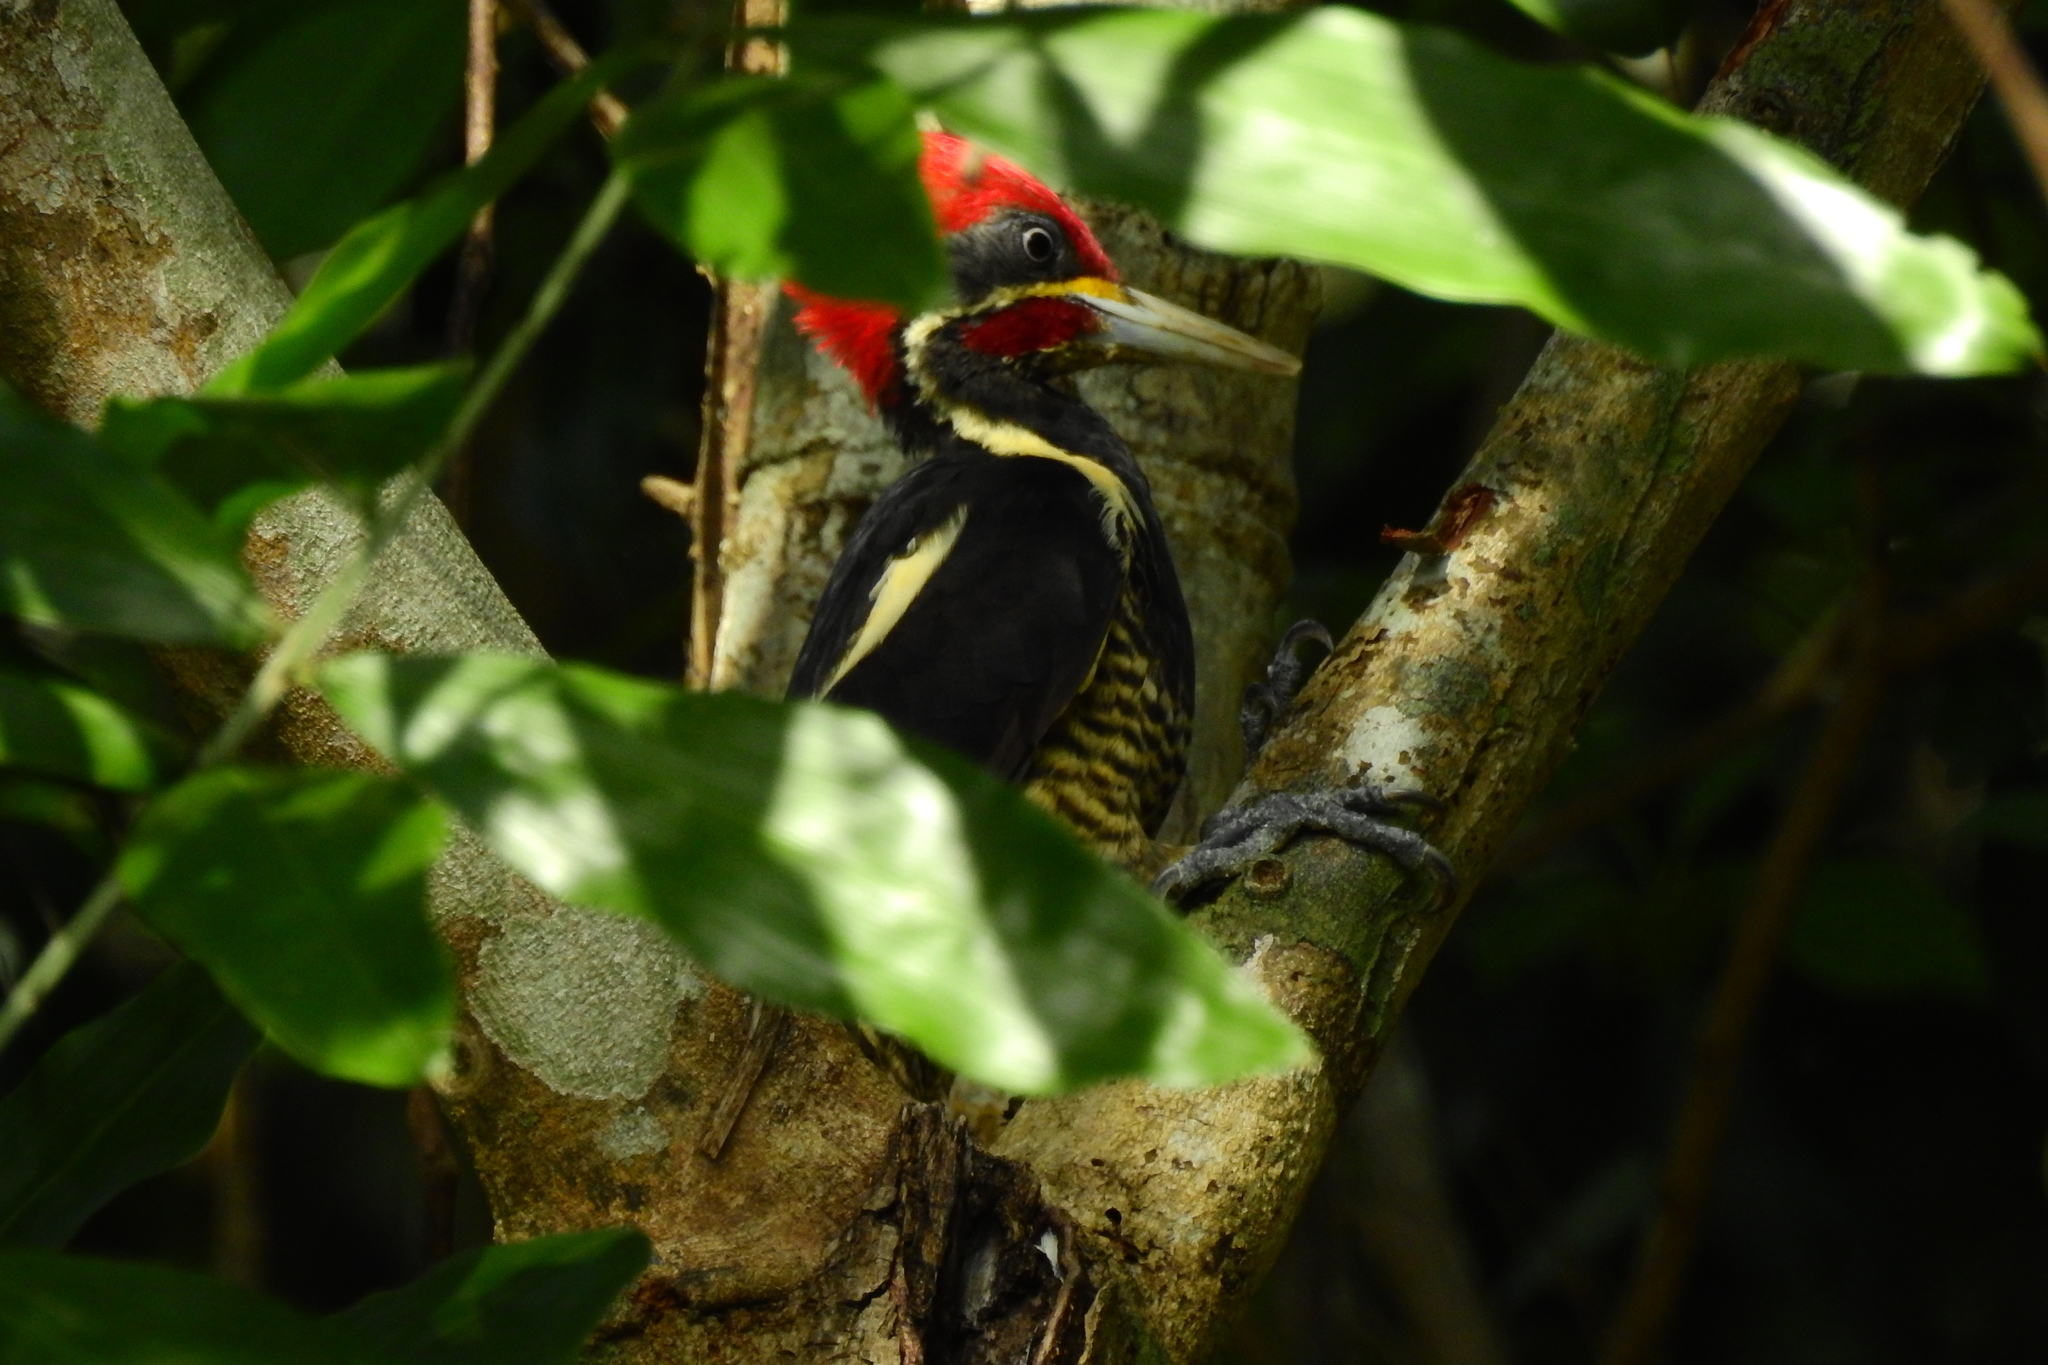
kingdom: Animalia
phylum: Chordata
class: Aves
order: Piciformes
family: Picidae
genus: Dryocopus
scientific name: Dryocopus lineatus
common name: Lineated woodpecker
